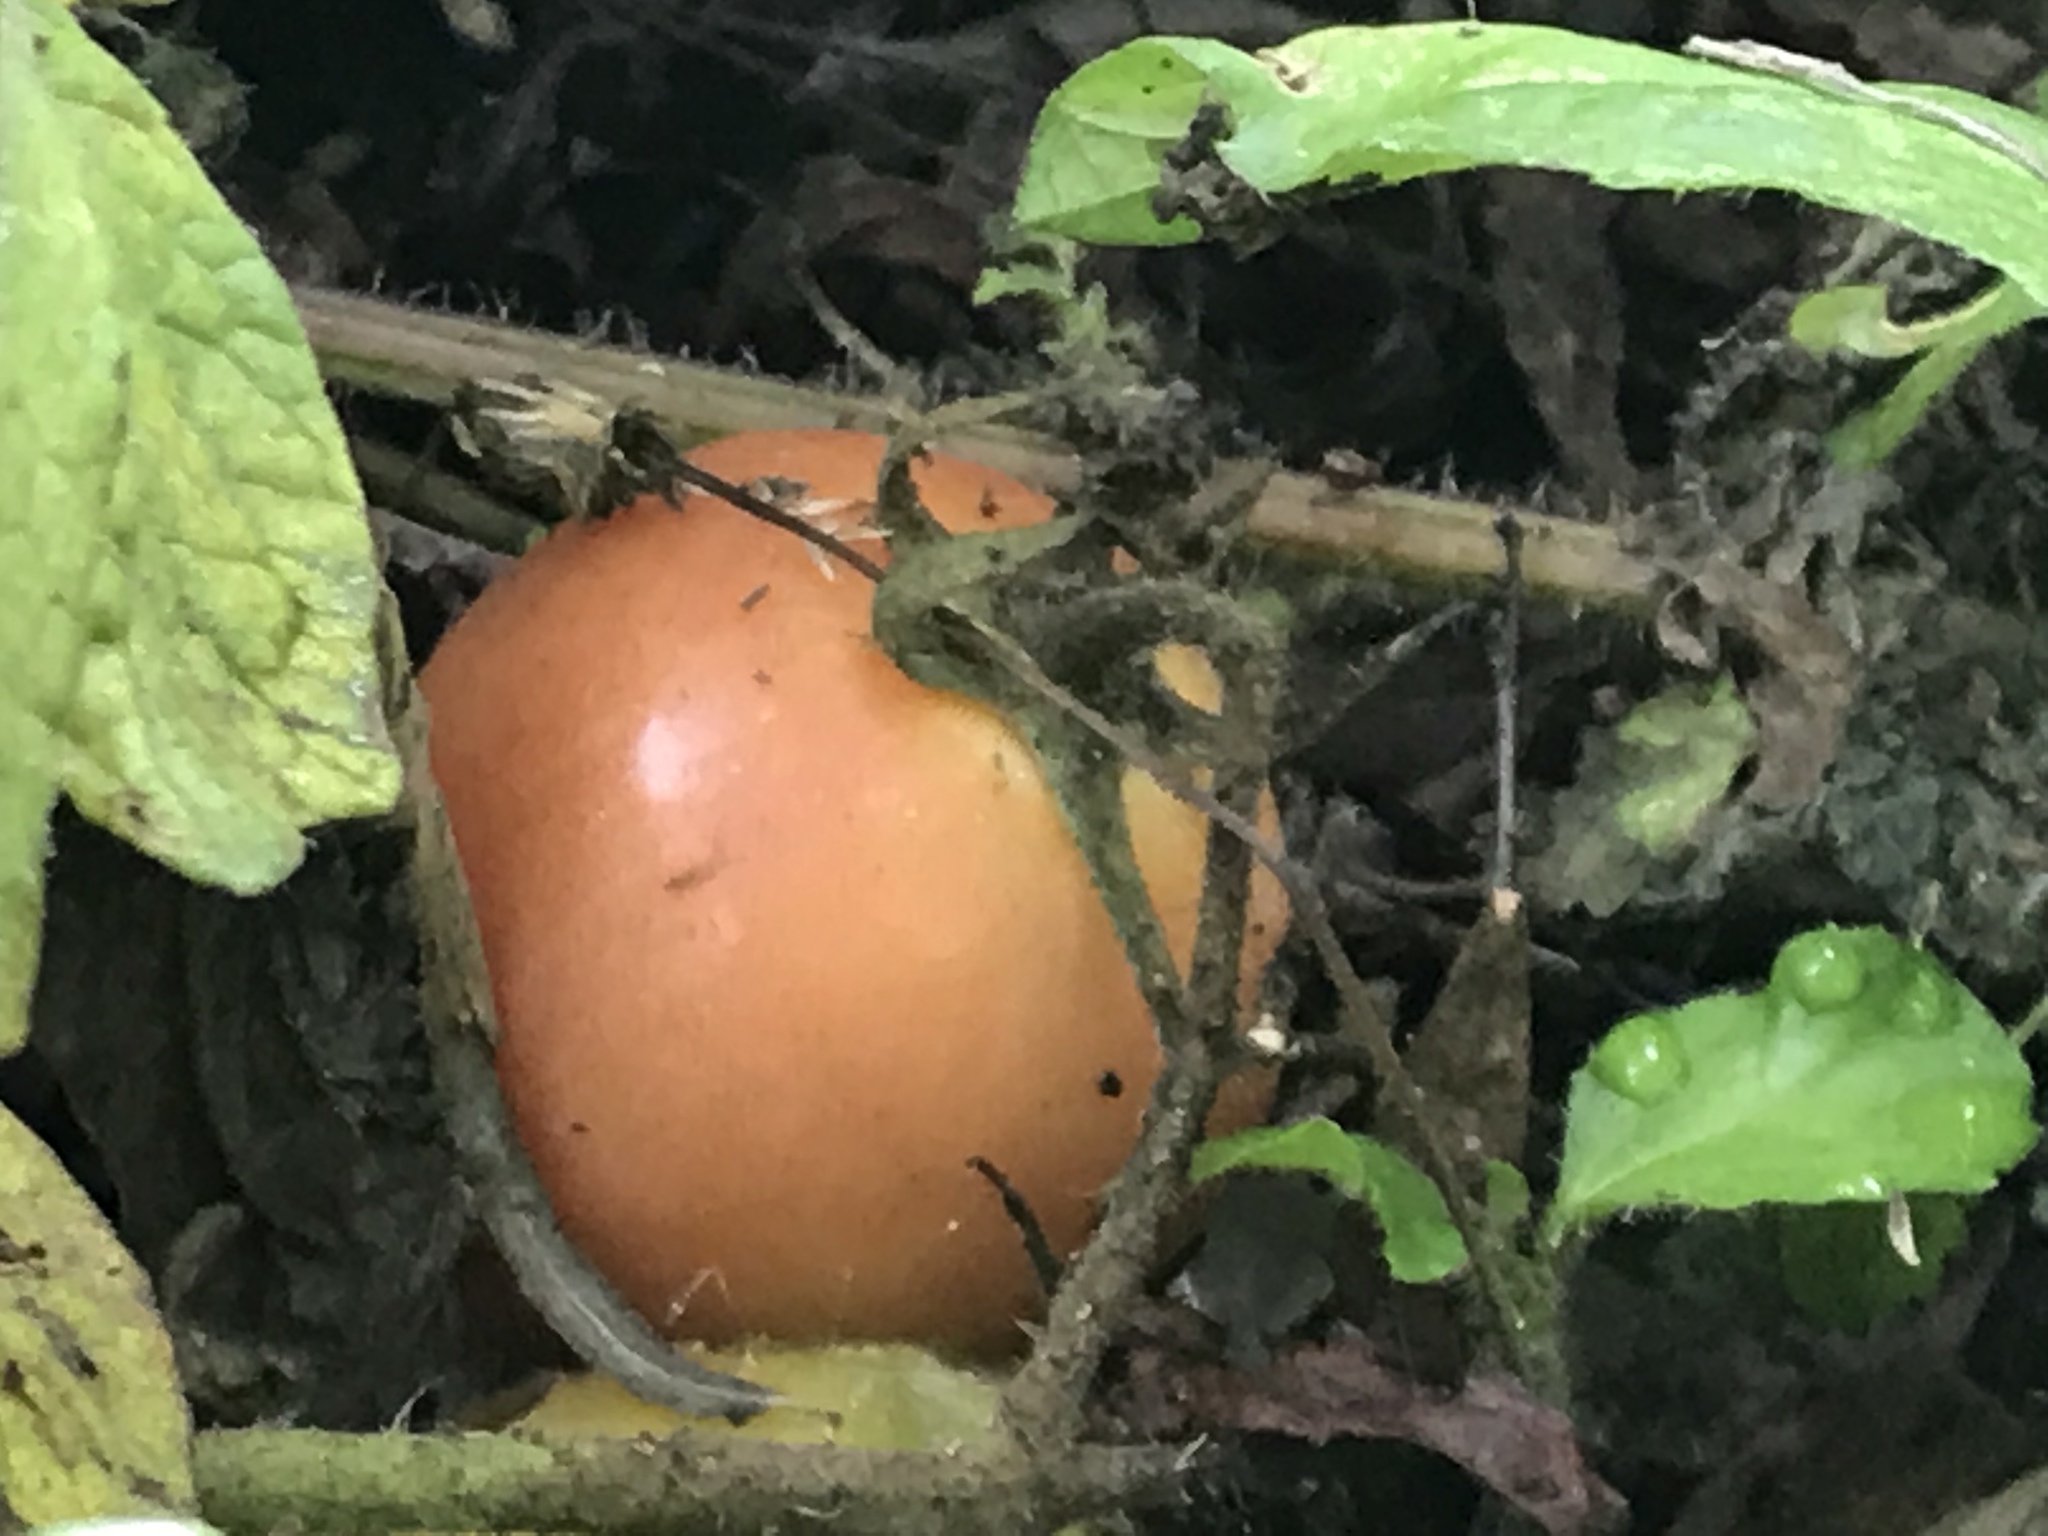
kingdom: Plantae
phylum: Tracheophyta
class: Magnoliopsida
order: Solanales
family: Solanaceae
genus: Solanum
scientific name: Solanum lycopersicum
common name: Garden tomato
